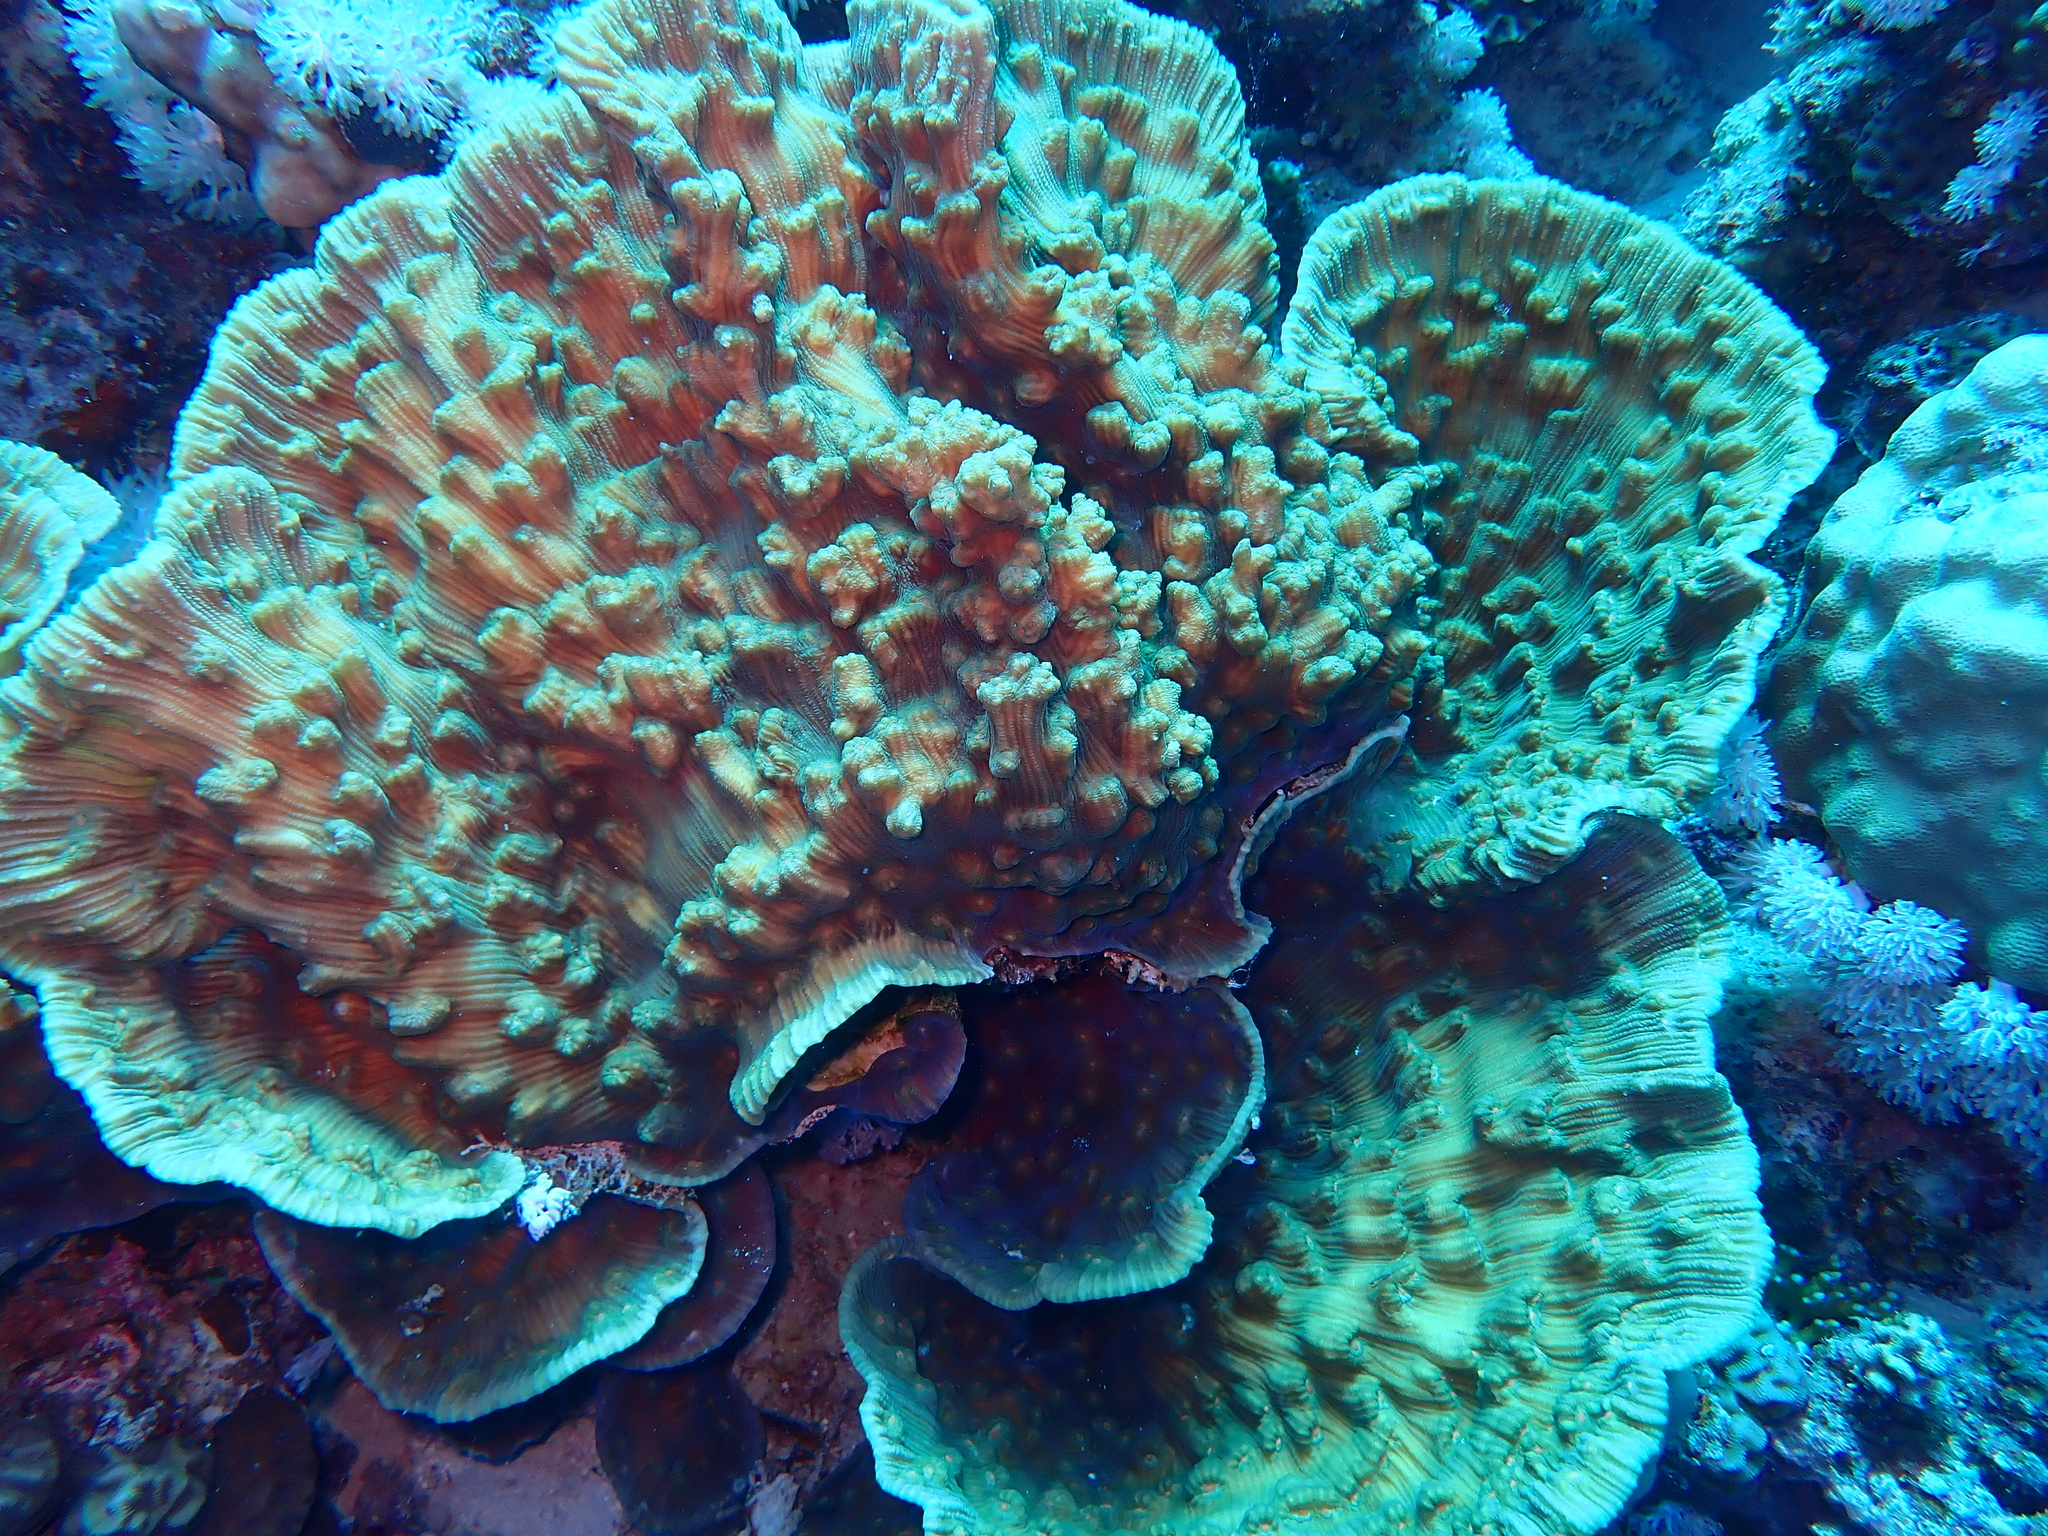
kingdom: Animalia
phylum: Cnidaria
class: Anthozoa
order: Scleractinia
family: Merulinidae
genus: Mycedium
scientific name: Mycedium umbra
